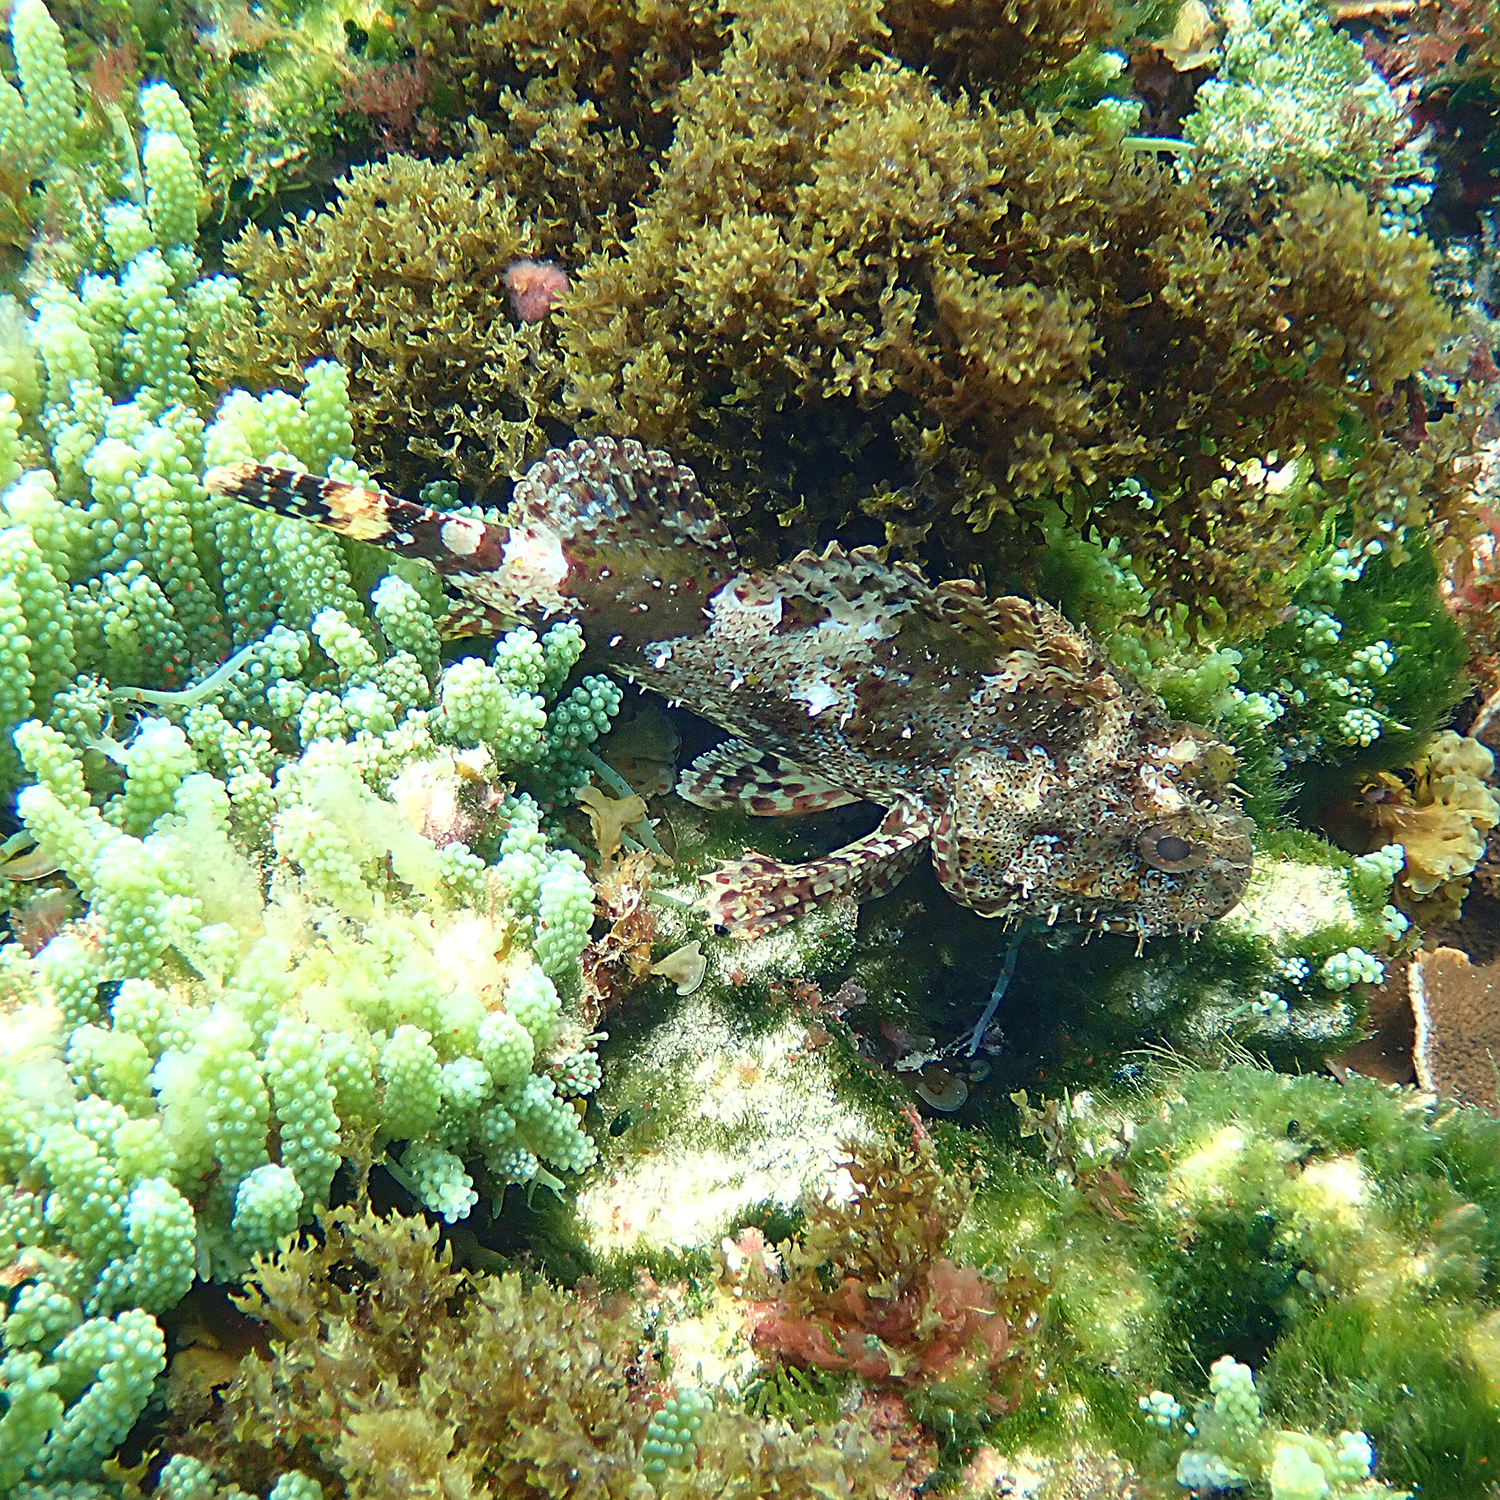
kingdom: Animalia
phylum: Chordata
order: Scorpaeniformes
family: Scorpaenidae
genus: Scorpaena
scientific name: Scorpaena cardinalis
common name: Cardinal scorpionfish
